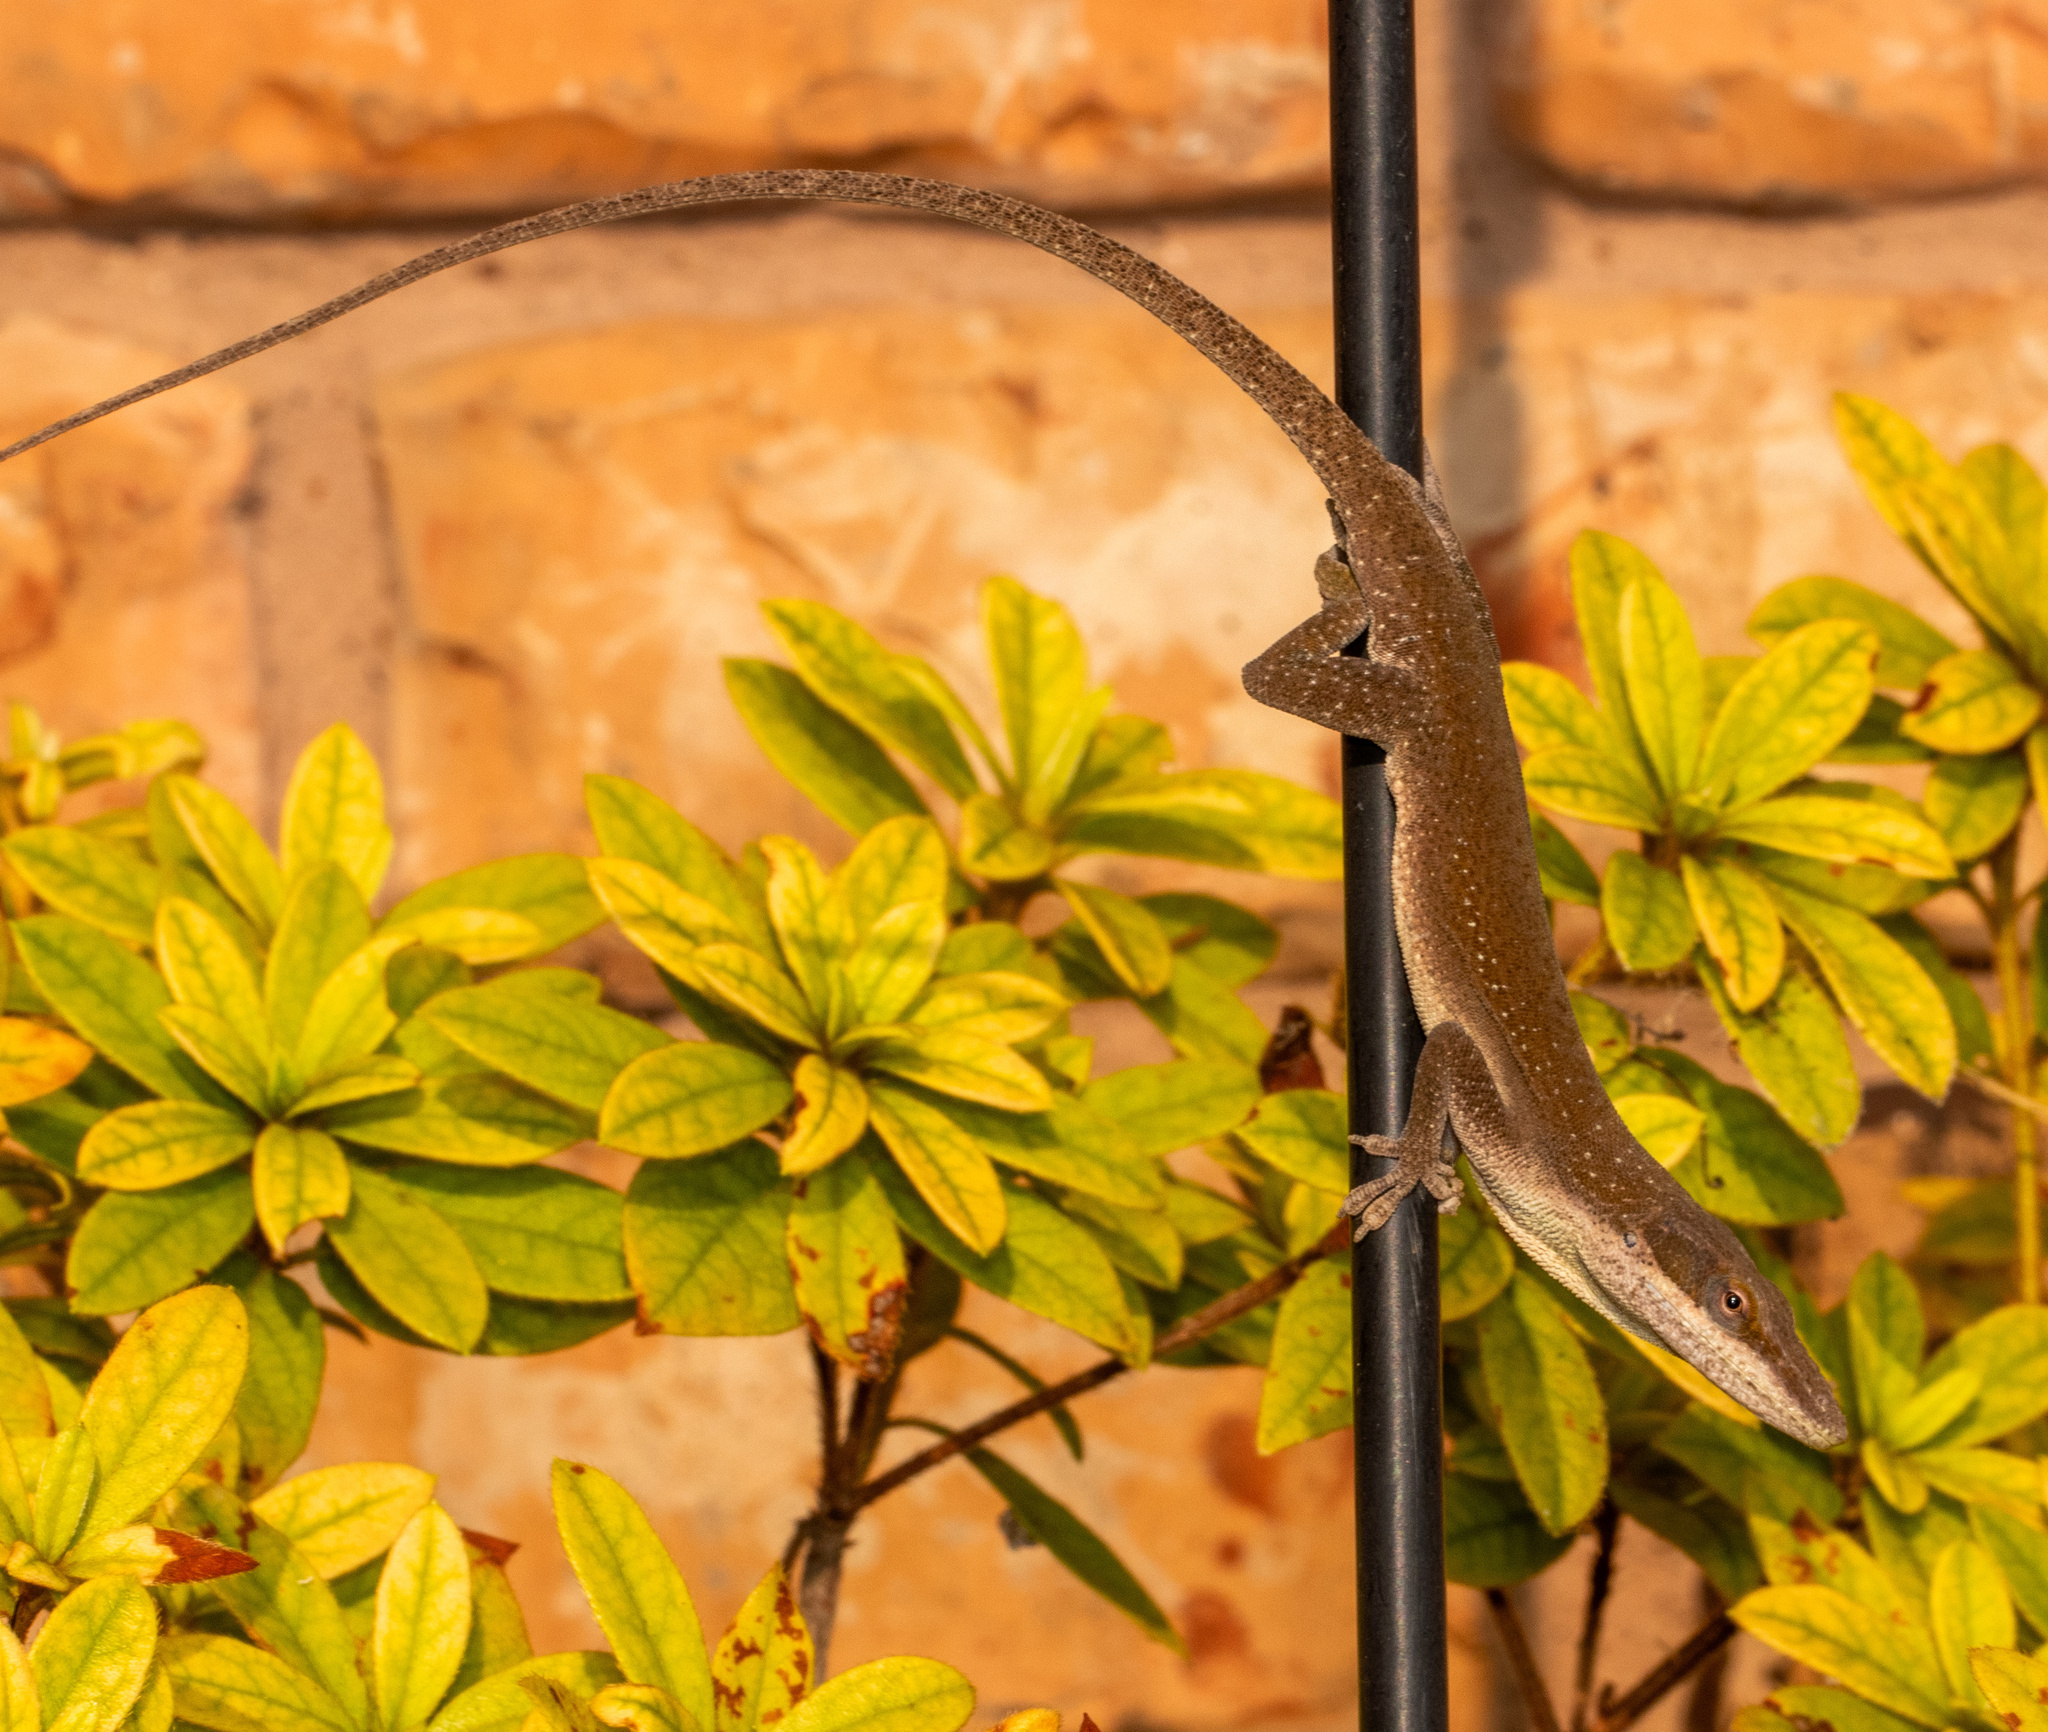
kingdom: Animalia
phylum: Chordata
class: Squamata
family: Dactyloidae
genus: Anolis
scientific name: Anolis carolinensis
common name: Green anole
